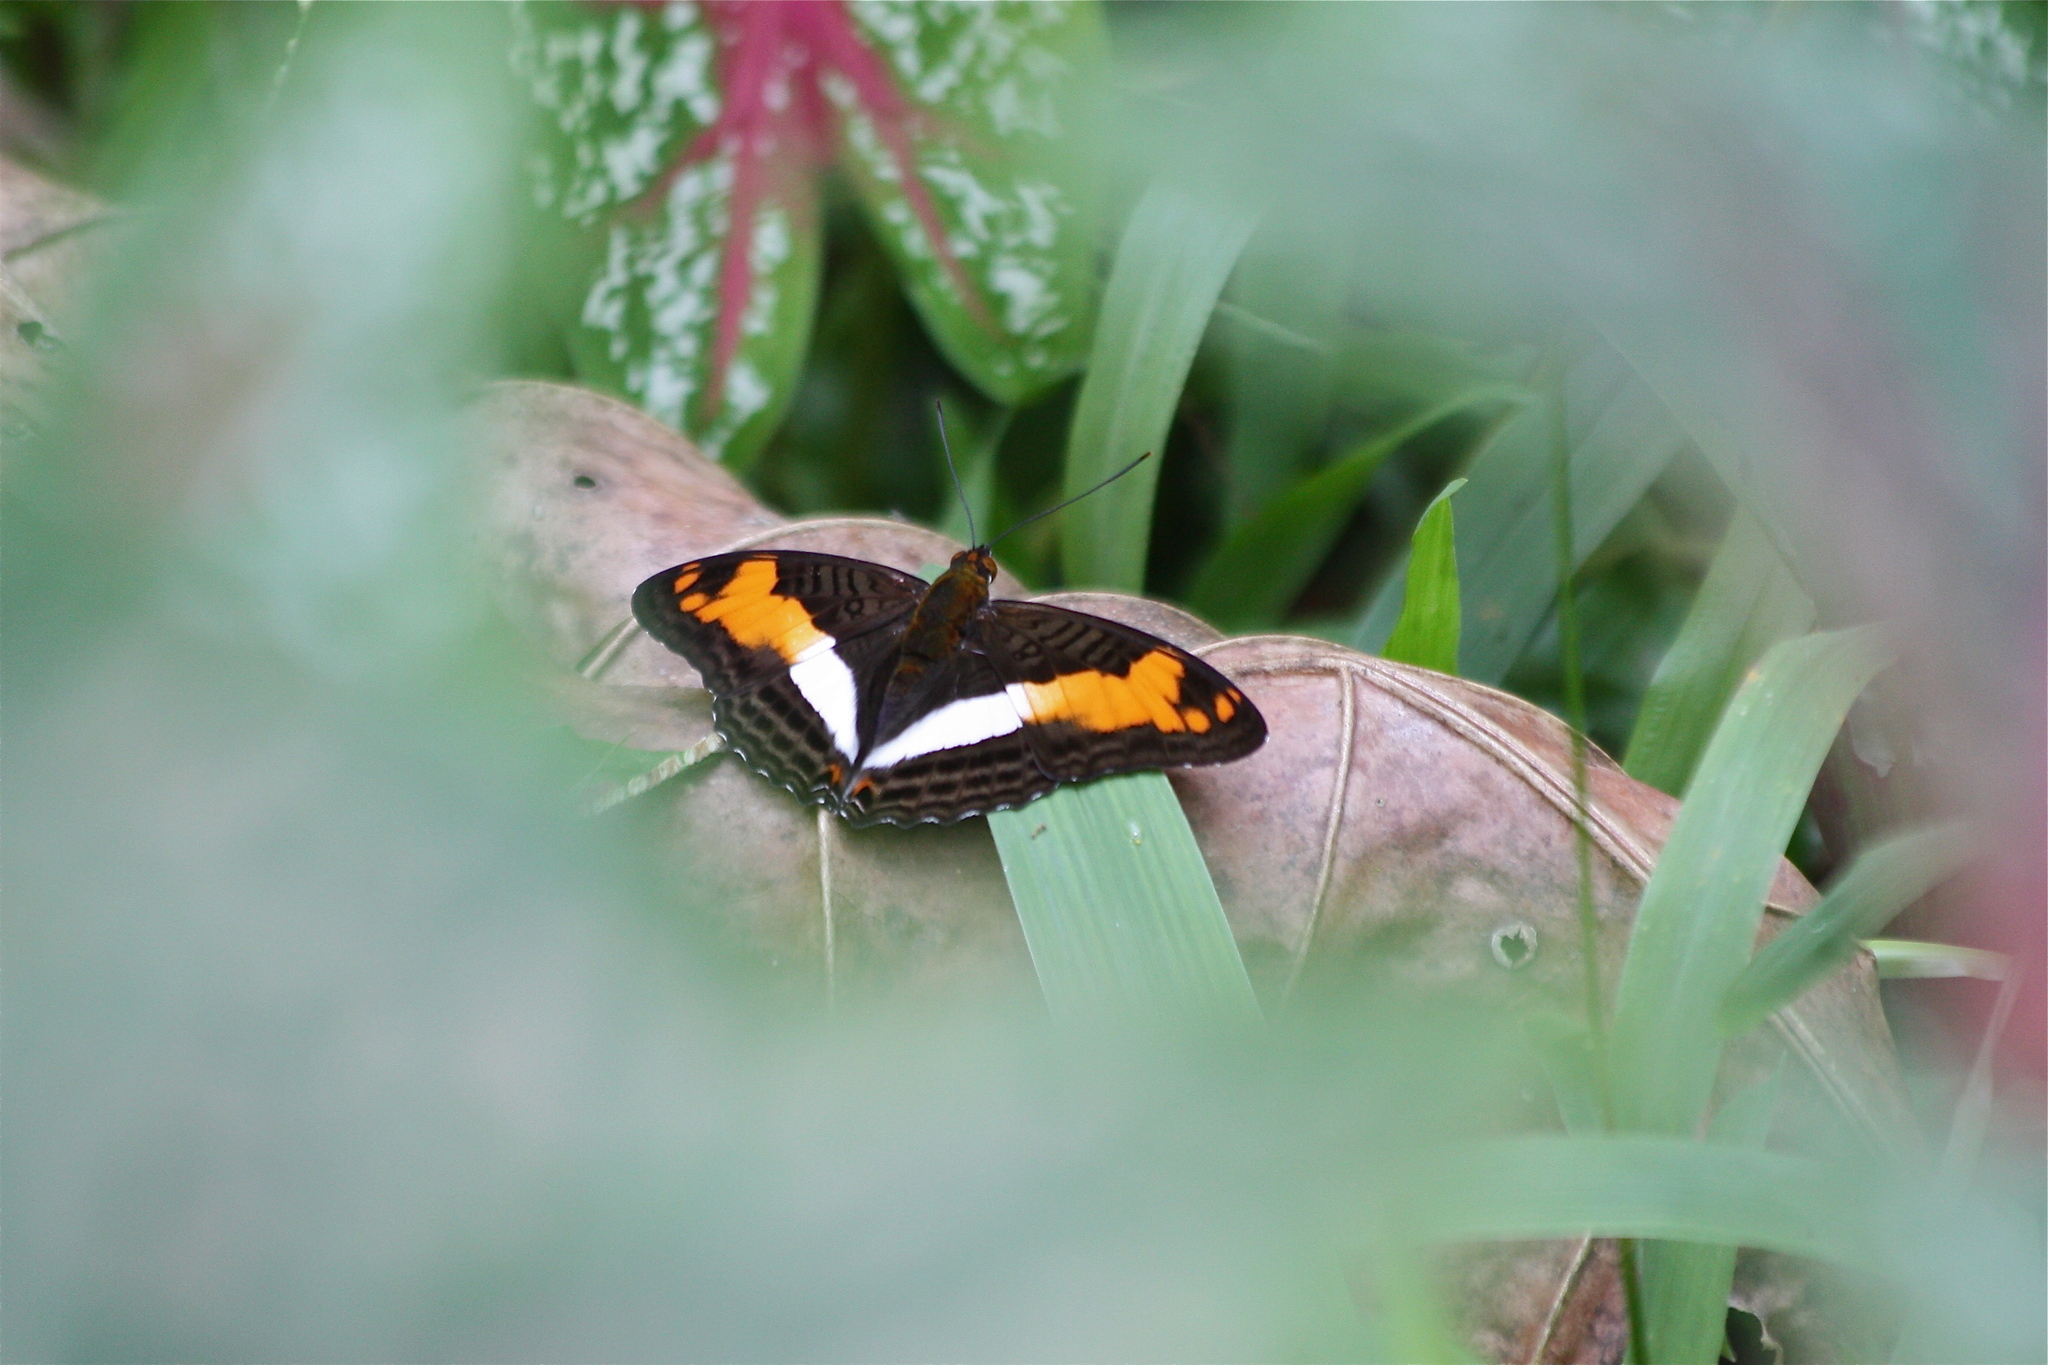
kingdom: Animalia
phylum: Arthropoda
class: Insecta
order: Lepidoptera
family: Nymphalidae
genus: Limenitis
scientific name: Limenitis capucinus
